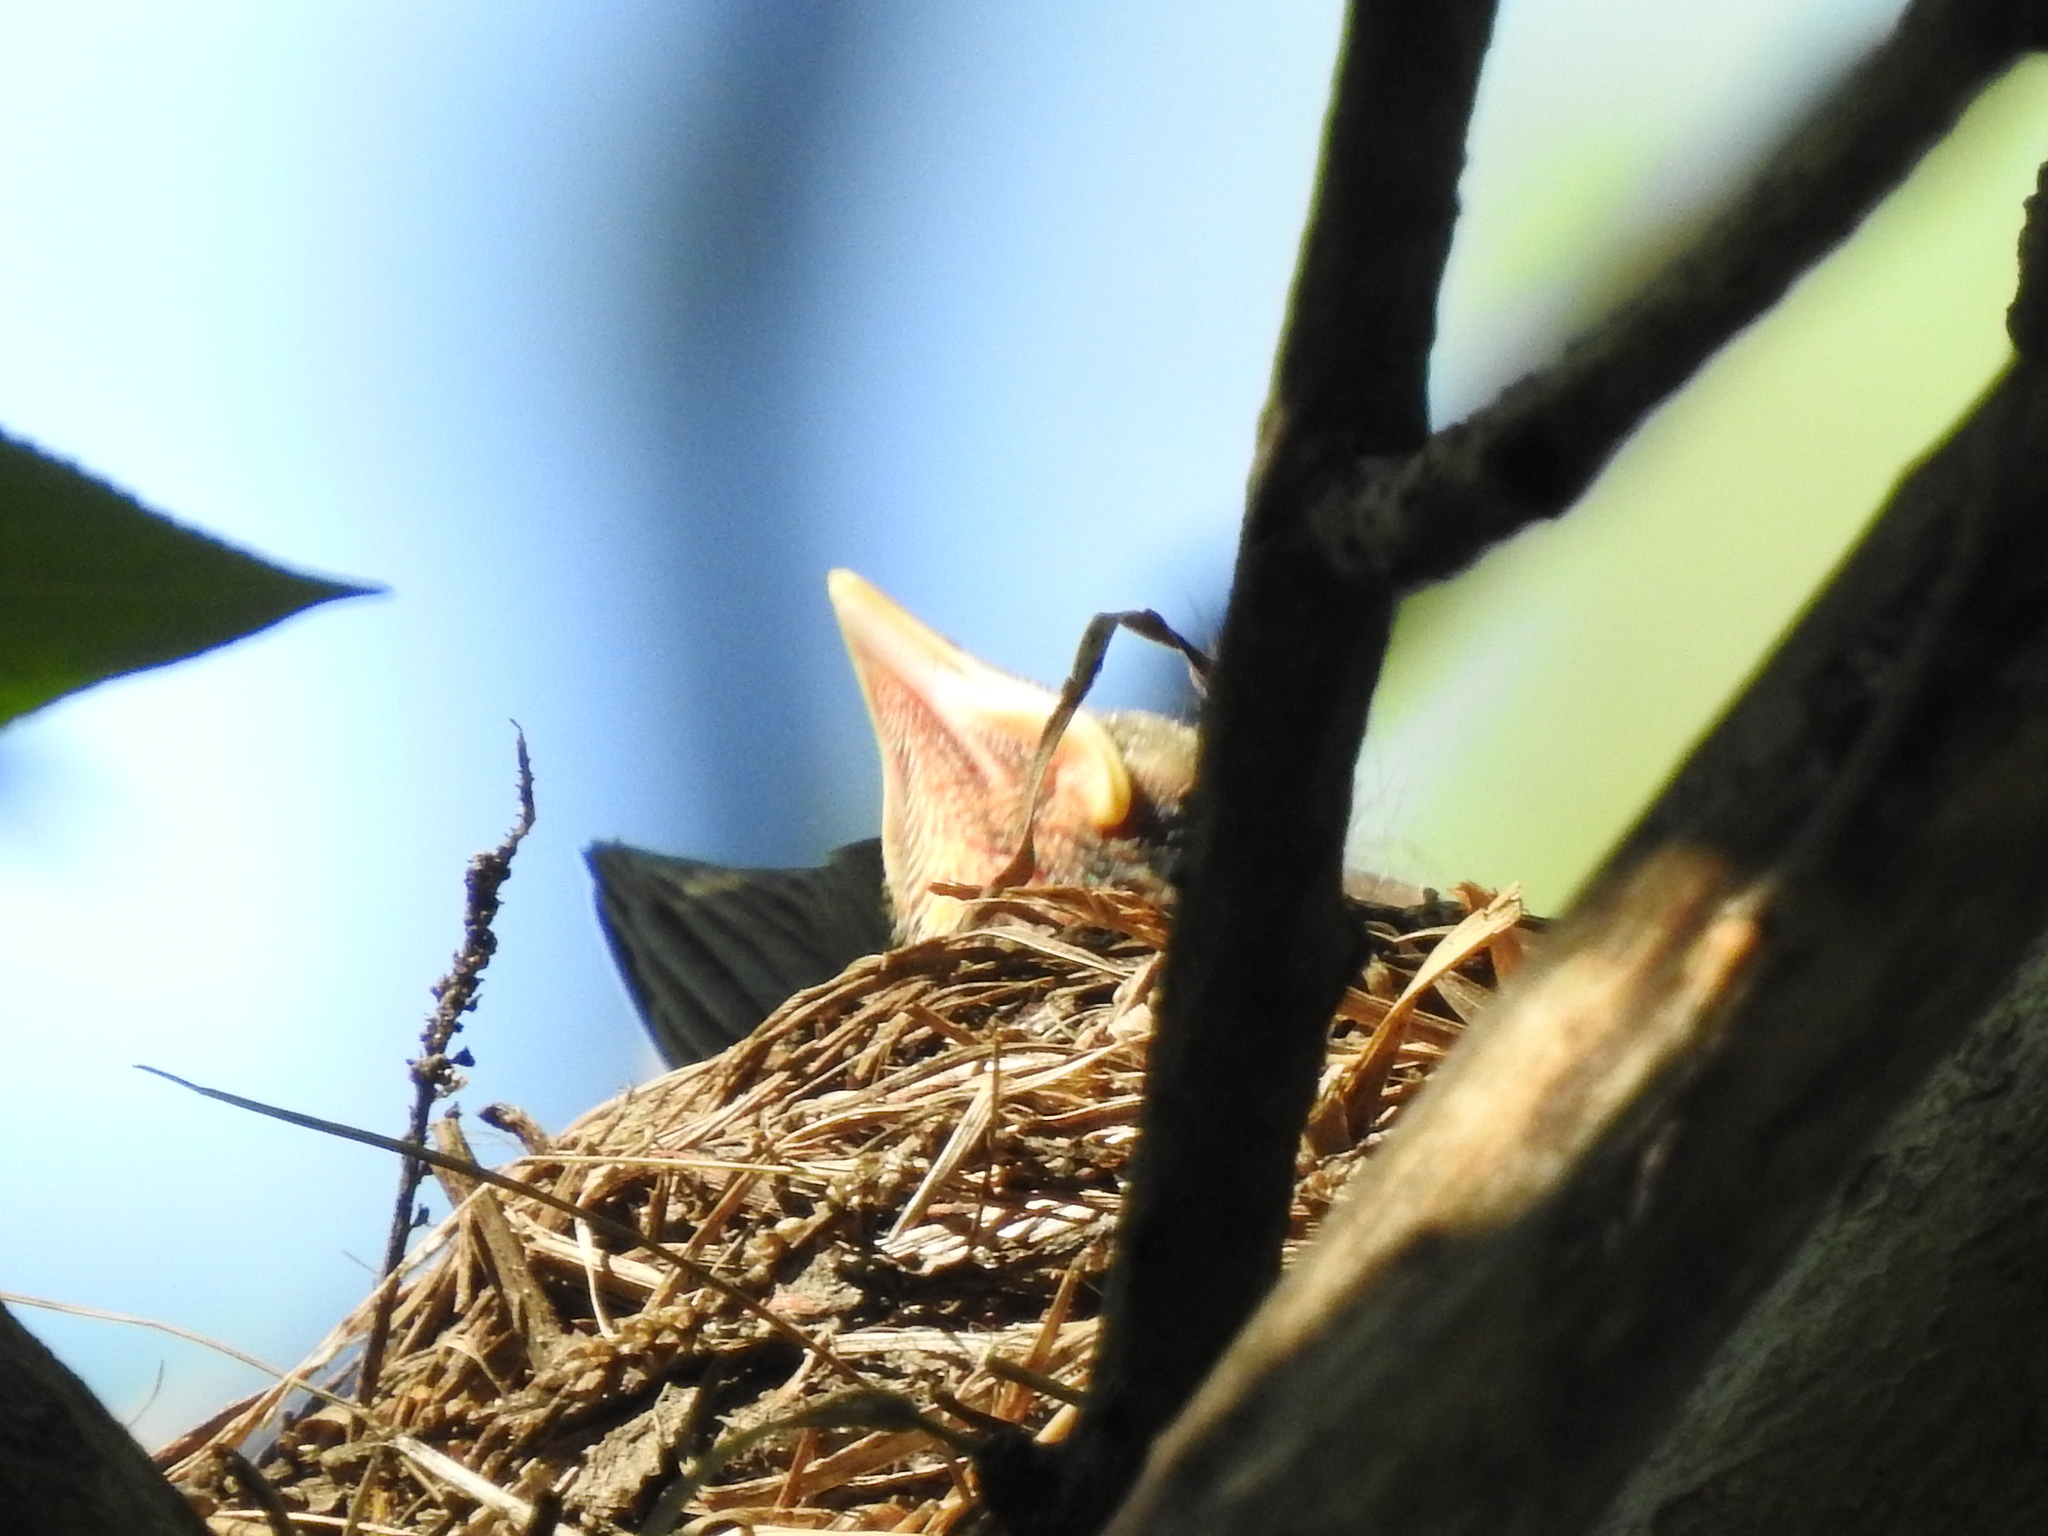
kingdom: Animalia
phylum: Chordata
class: Aves
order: Passeriformes
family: Turdidae
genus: Turdus
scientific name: Turdus pilaris
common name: Fieldfare
